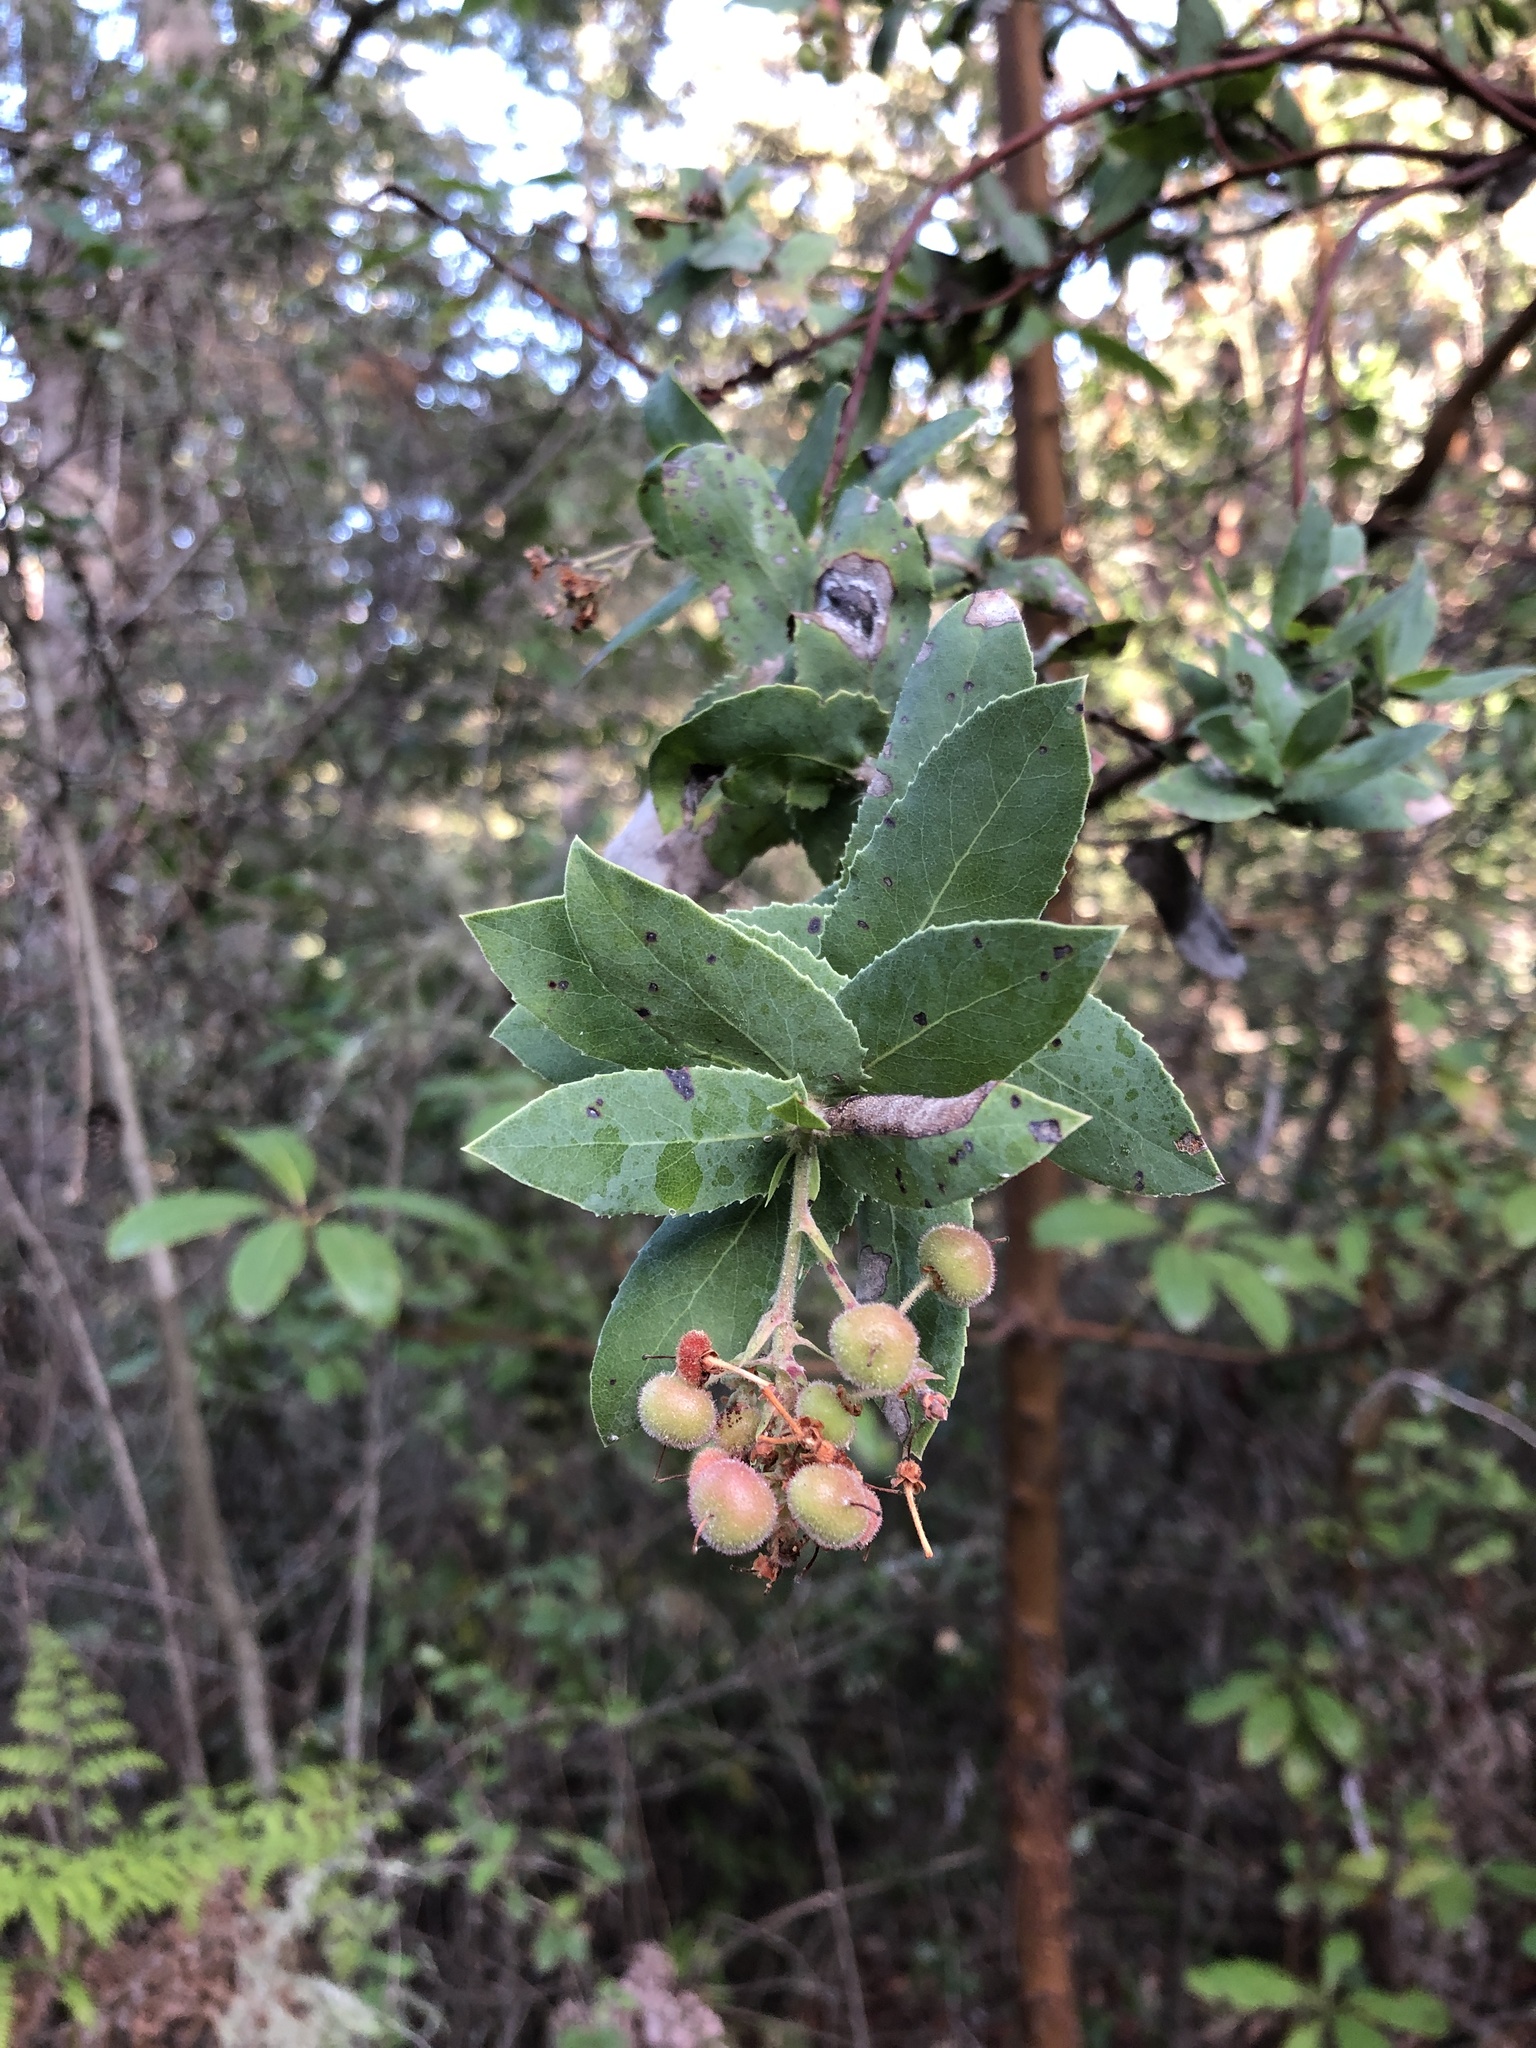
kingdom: Plantae
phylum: Tracheophyta
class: Magnoliopsida
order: Ericales
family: Ericaceae
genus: Arctostaphylos
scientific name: Arctostaphylos andersonii
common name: Santa cruz manzanita
